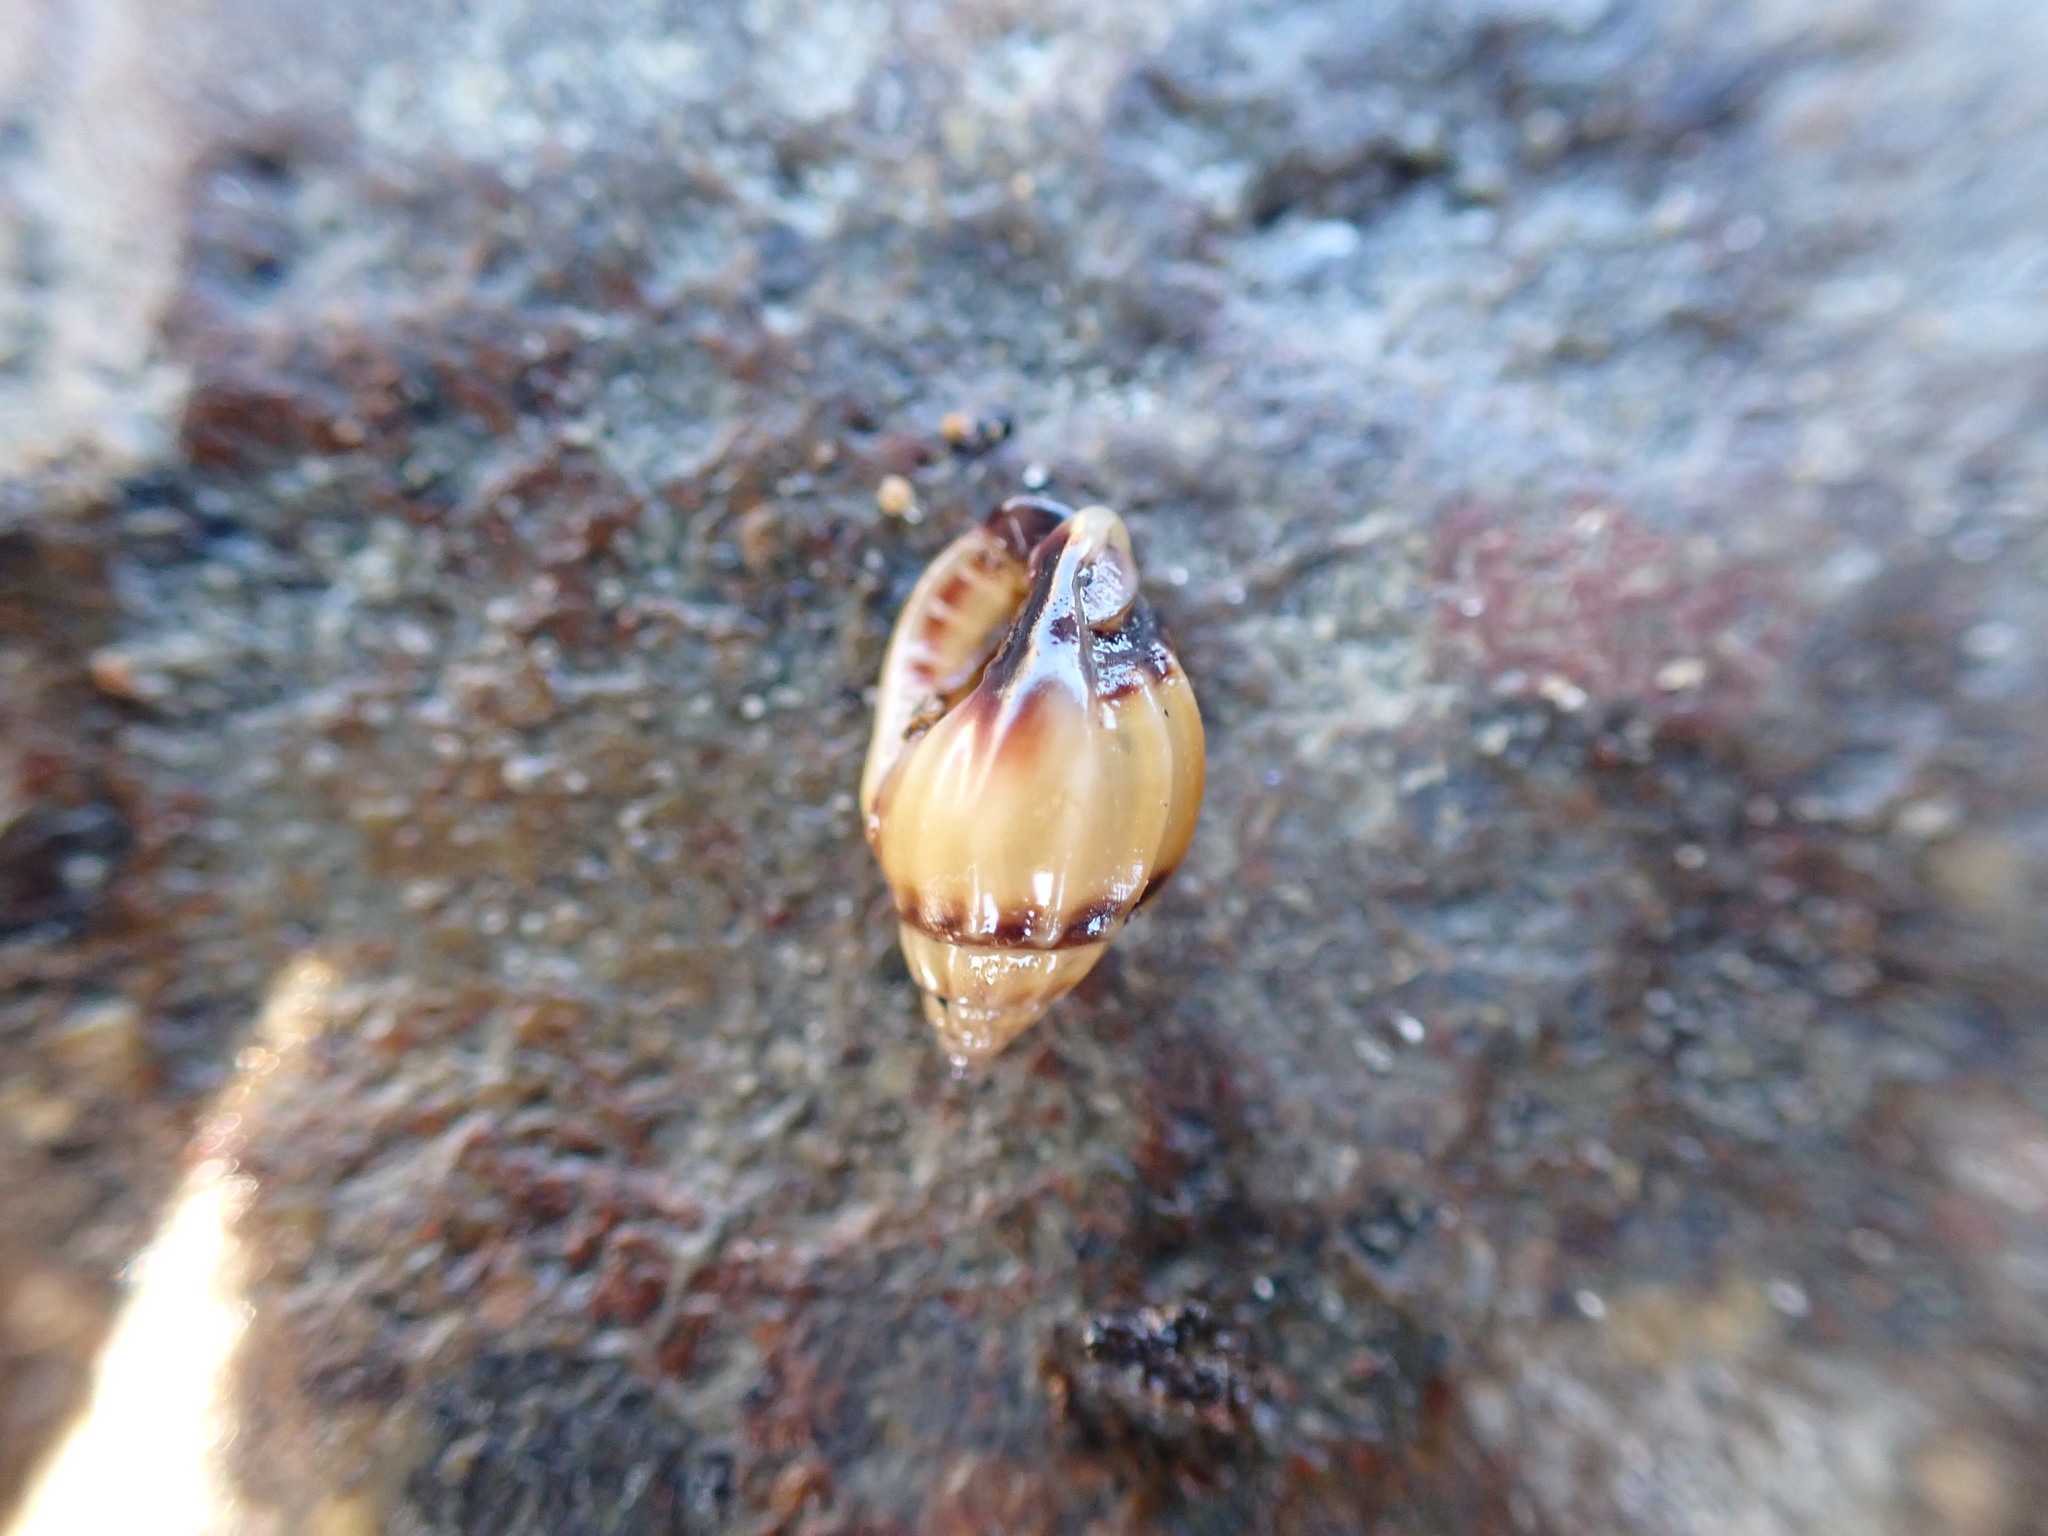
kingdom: Animalia
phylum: Mollusca
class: Gastropoda
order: Neogastropoda
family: Nassariidae
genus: Tritia
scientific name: Tritia burchardi
